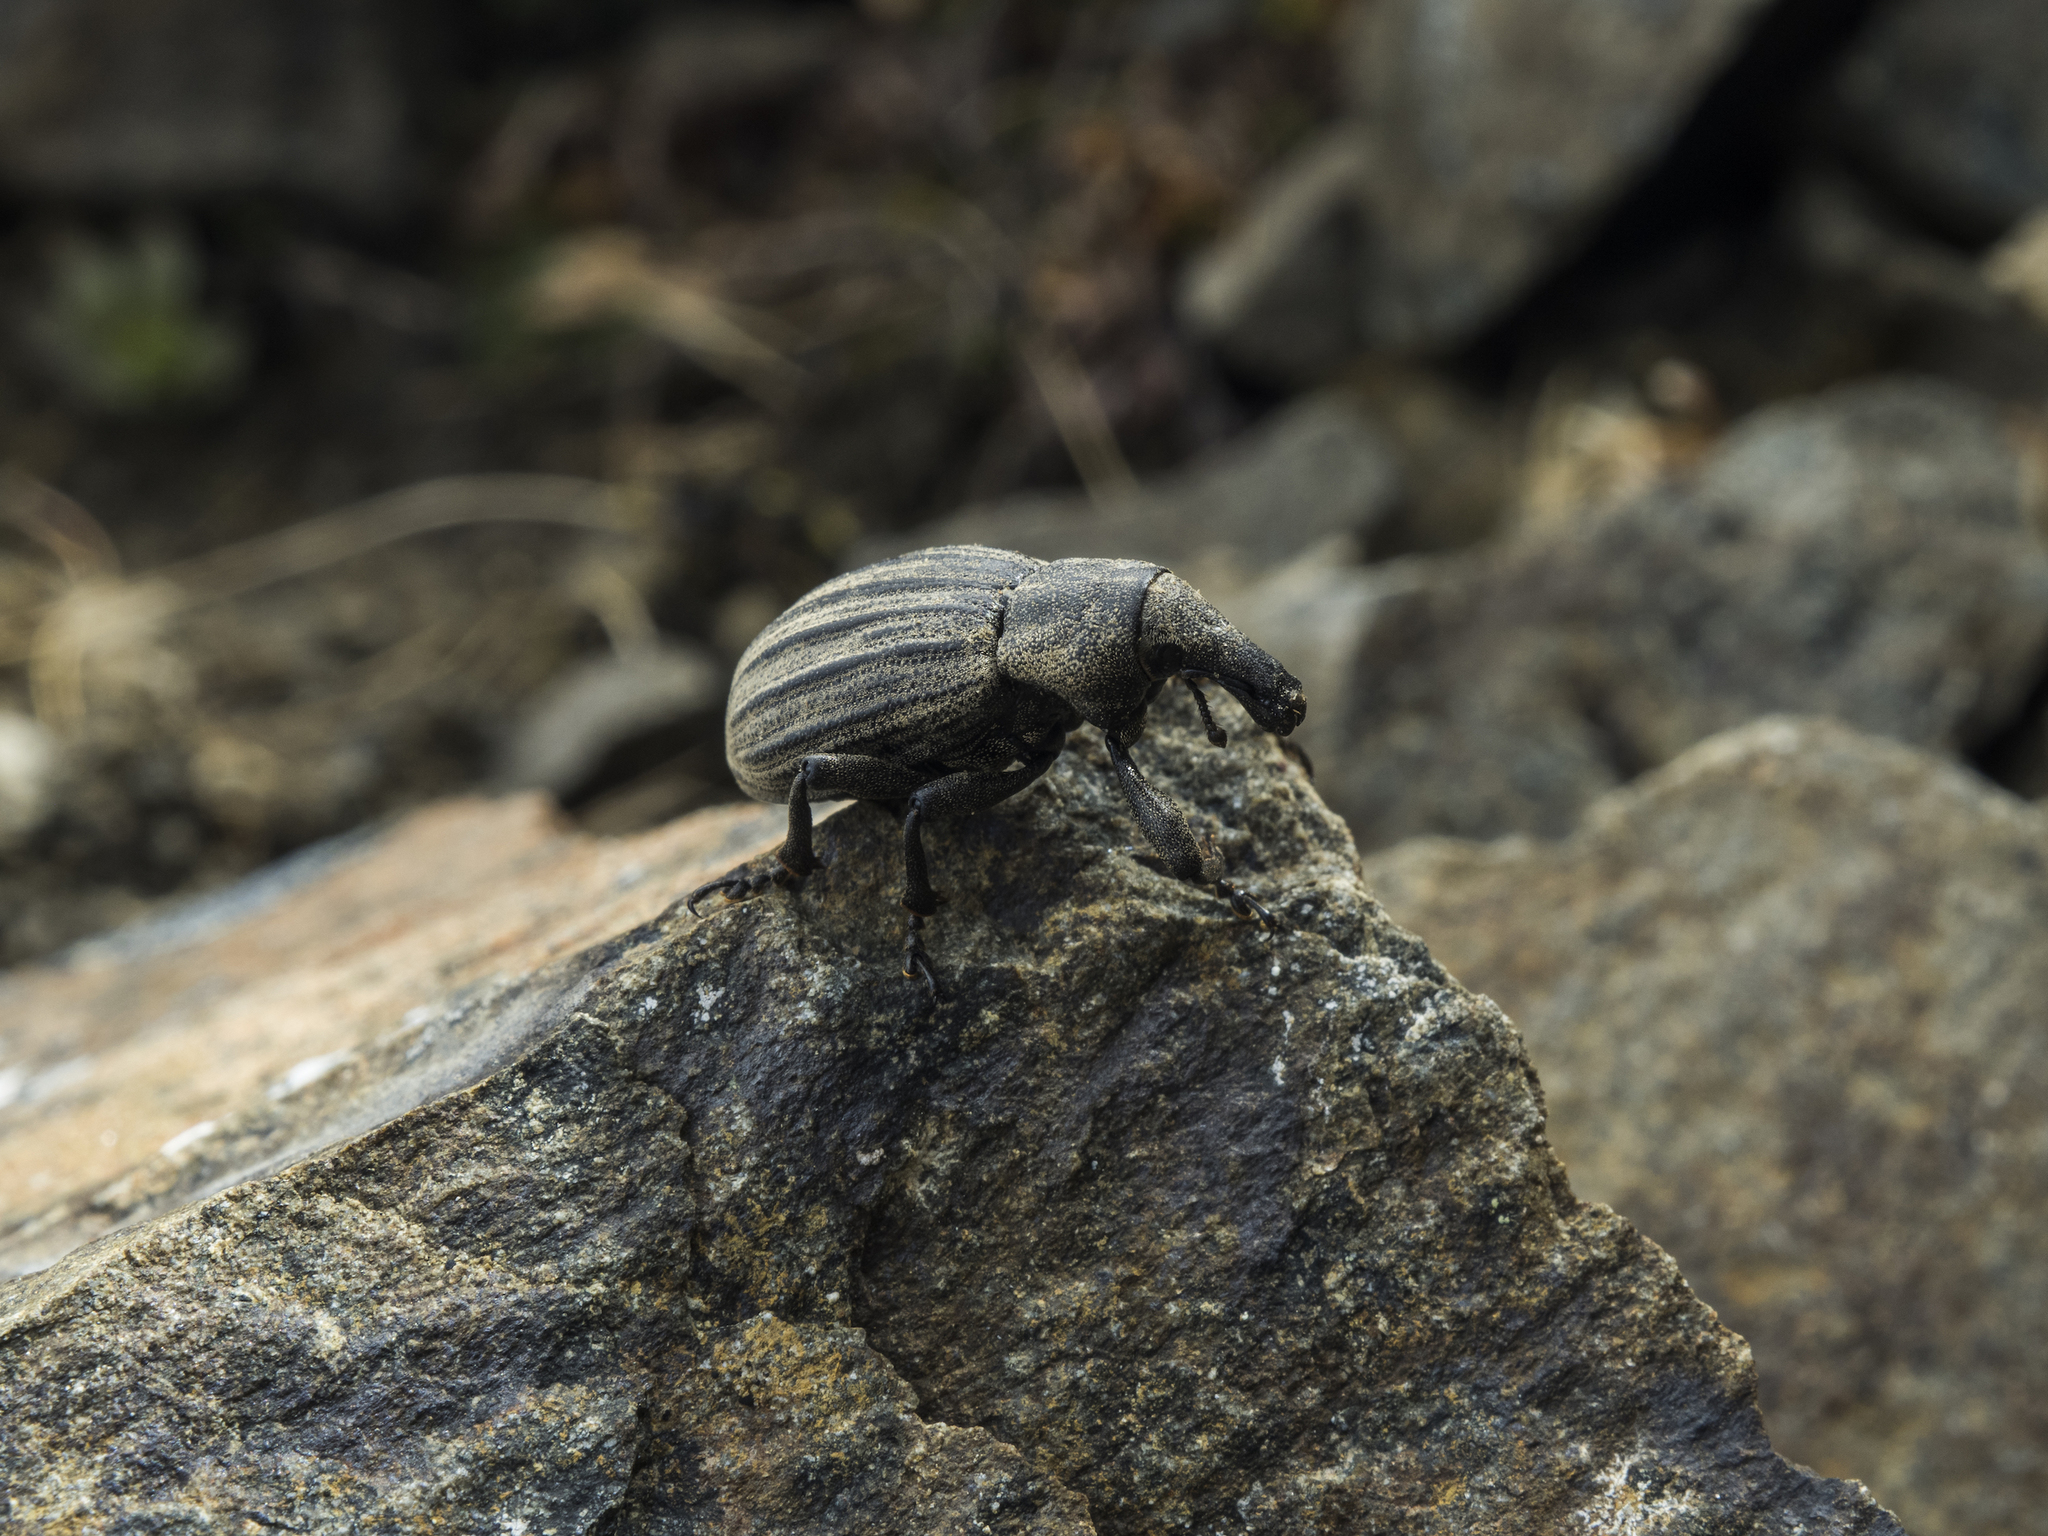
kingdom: Animalia
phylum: Arthropoda
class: Insecta
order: Coleoptera
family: Curculionidae
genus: Lyperobius
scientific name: Lyperobius spedeni
